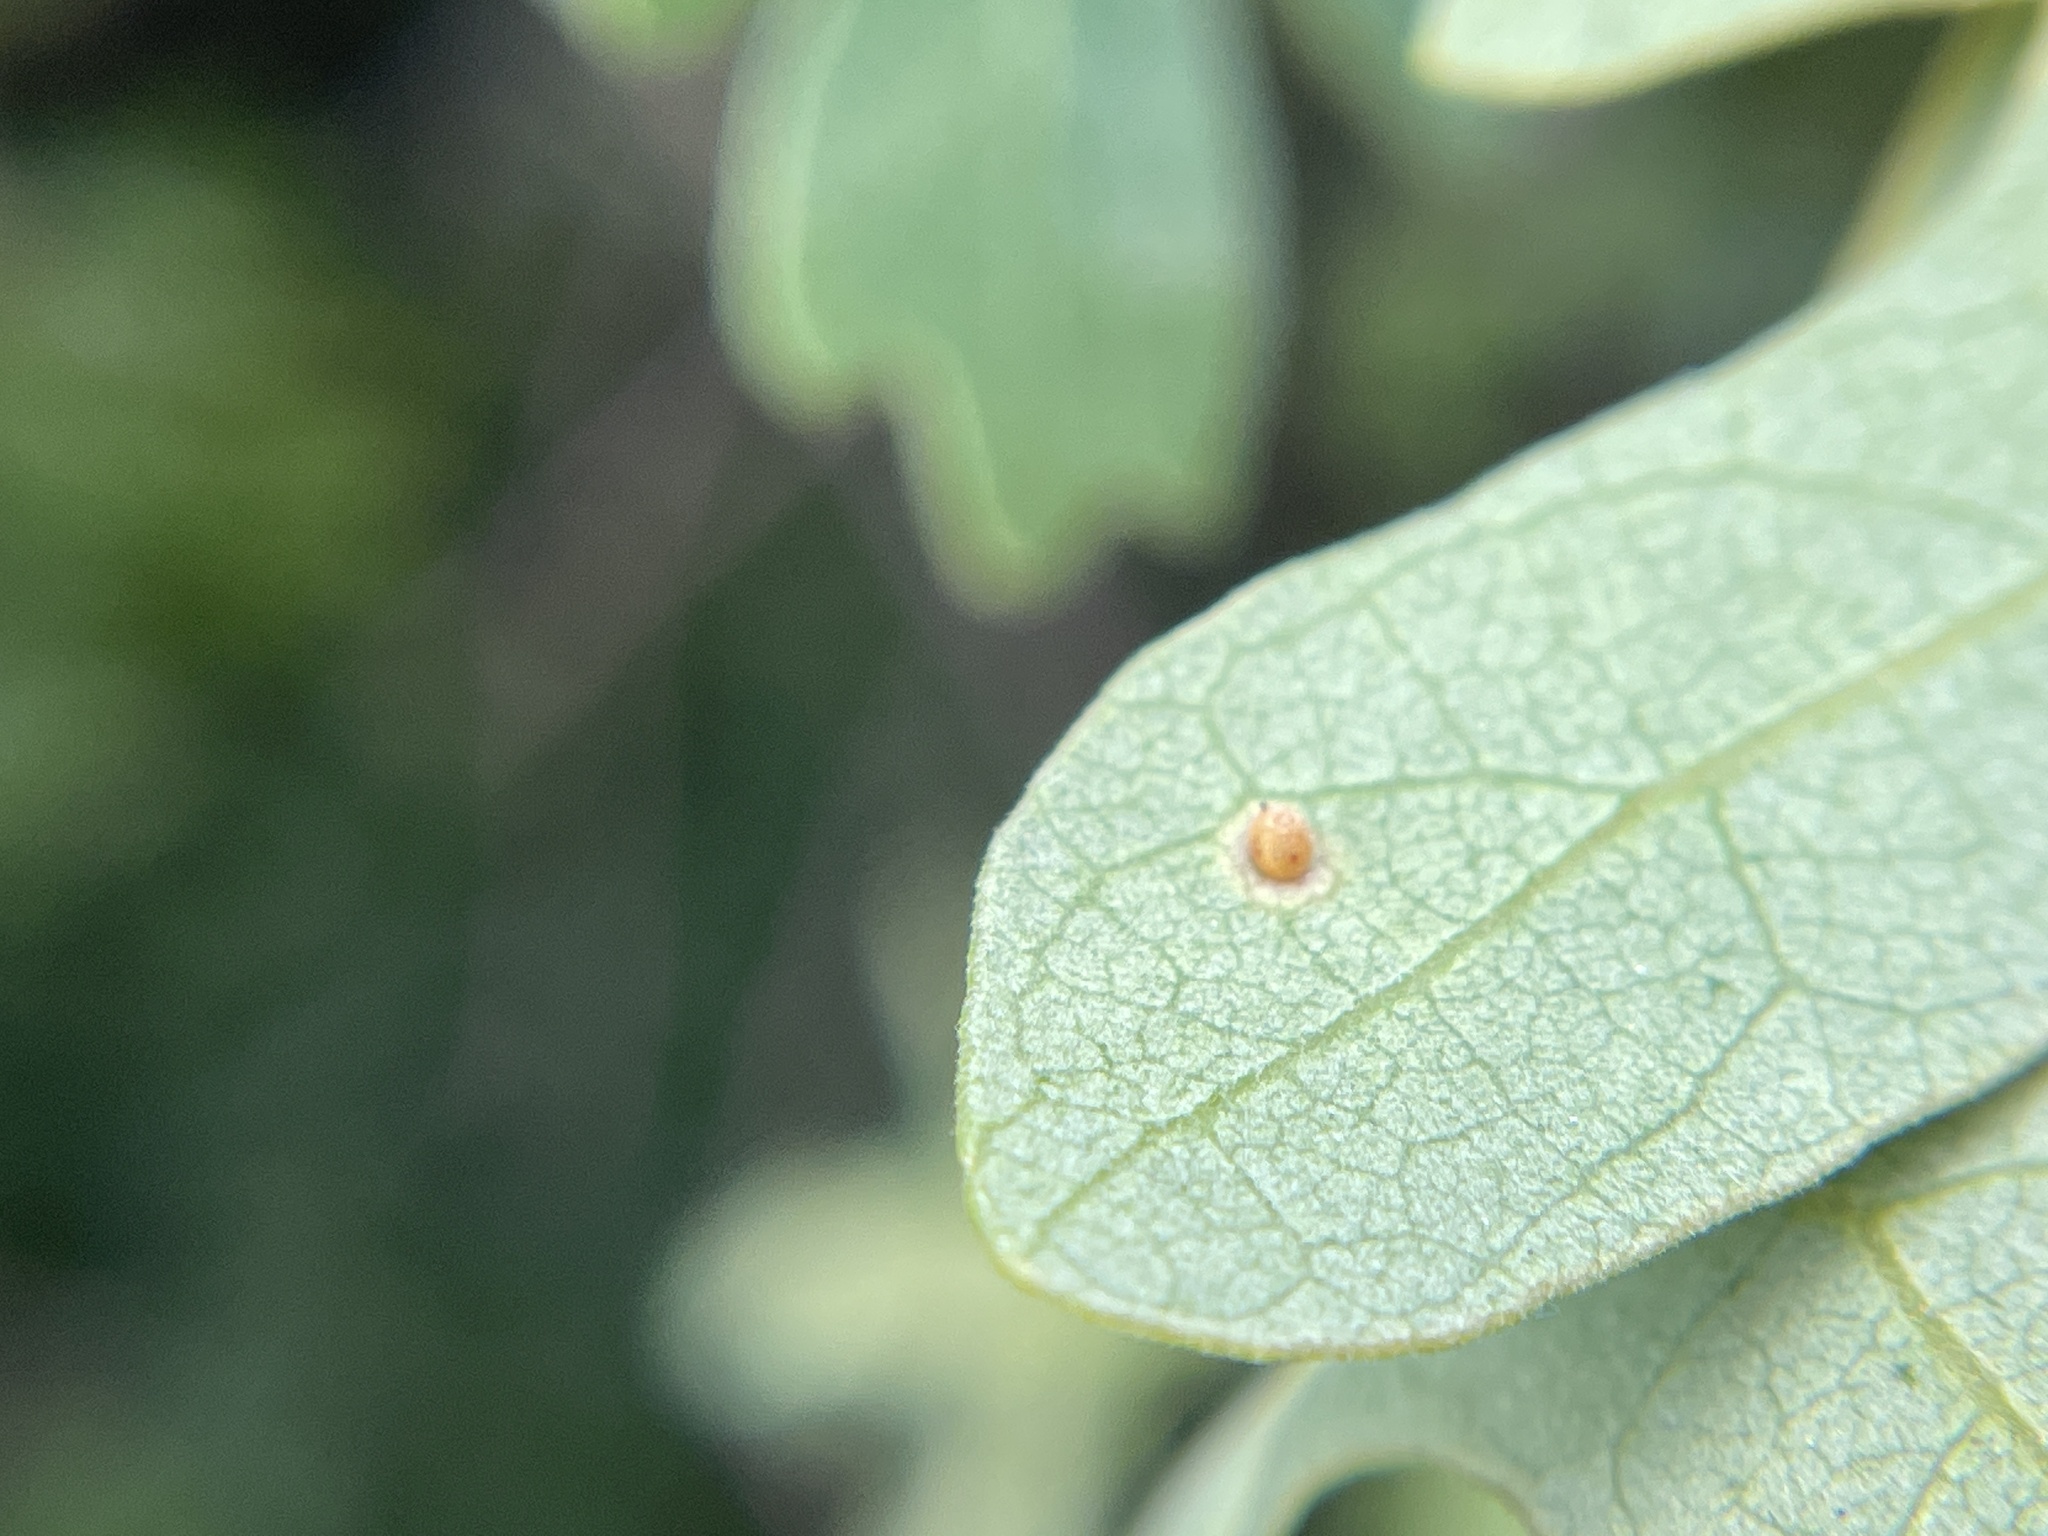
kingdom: Animalia
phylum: Arthropoda
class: Insecta
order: Hymenoptera
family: Cynipidae
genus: Neuroterus
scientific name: Neuroterus saltarius
